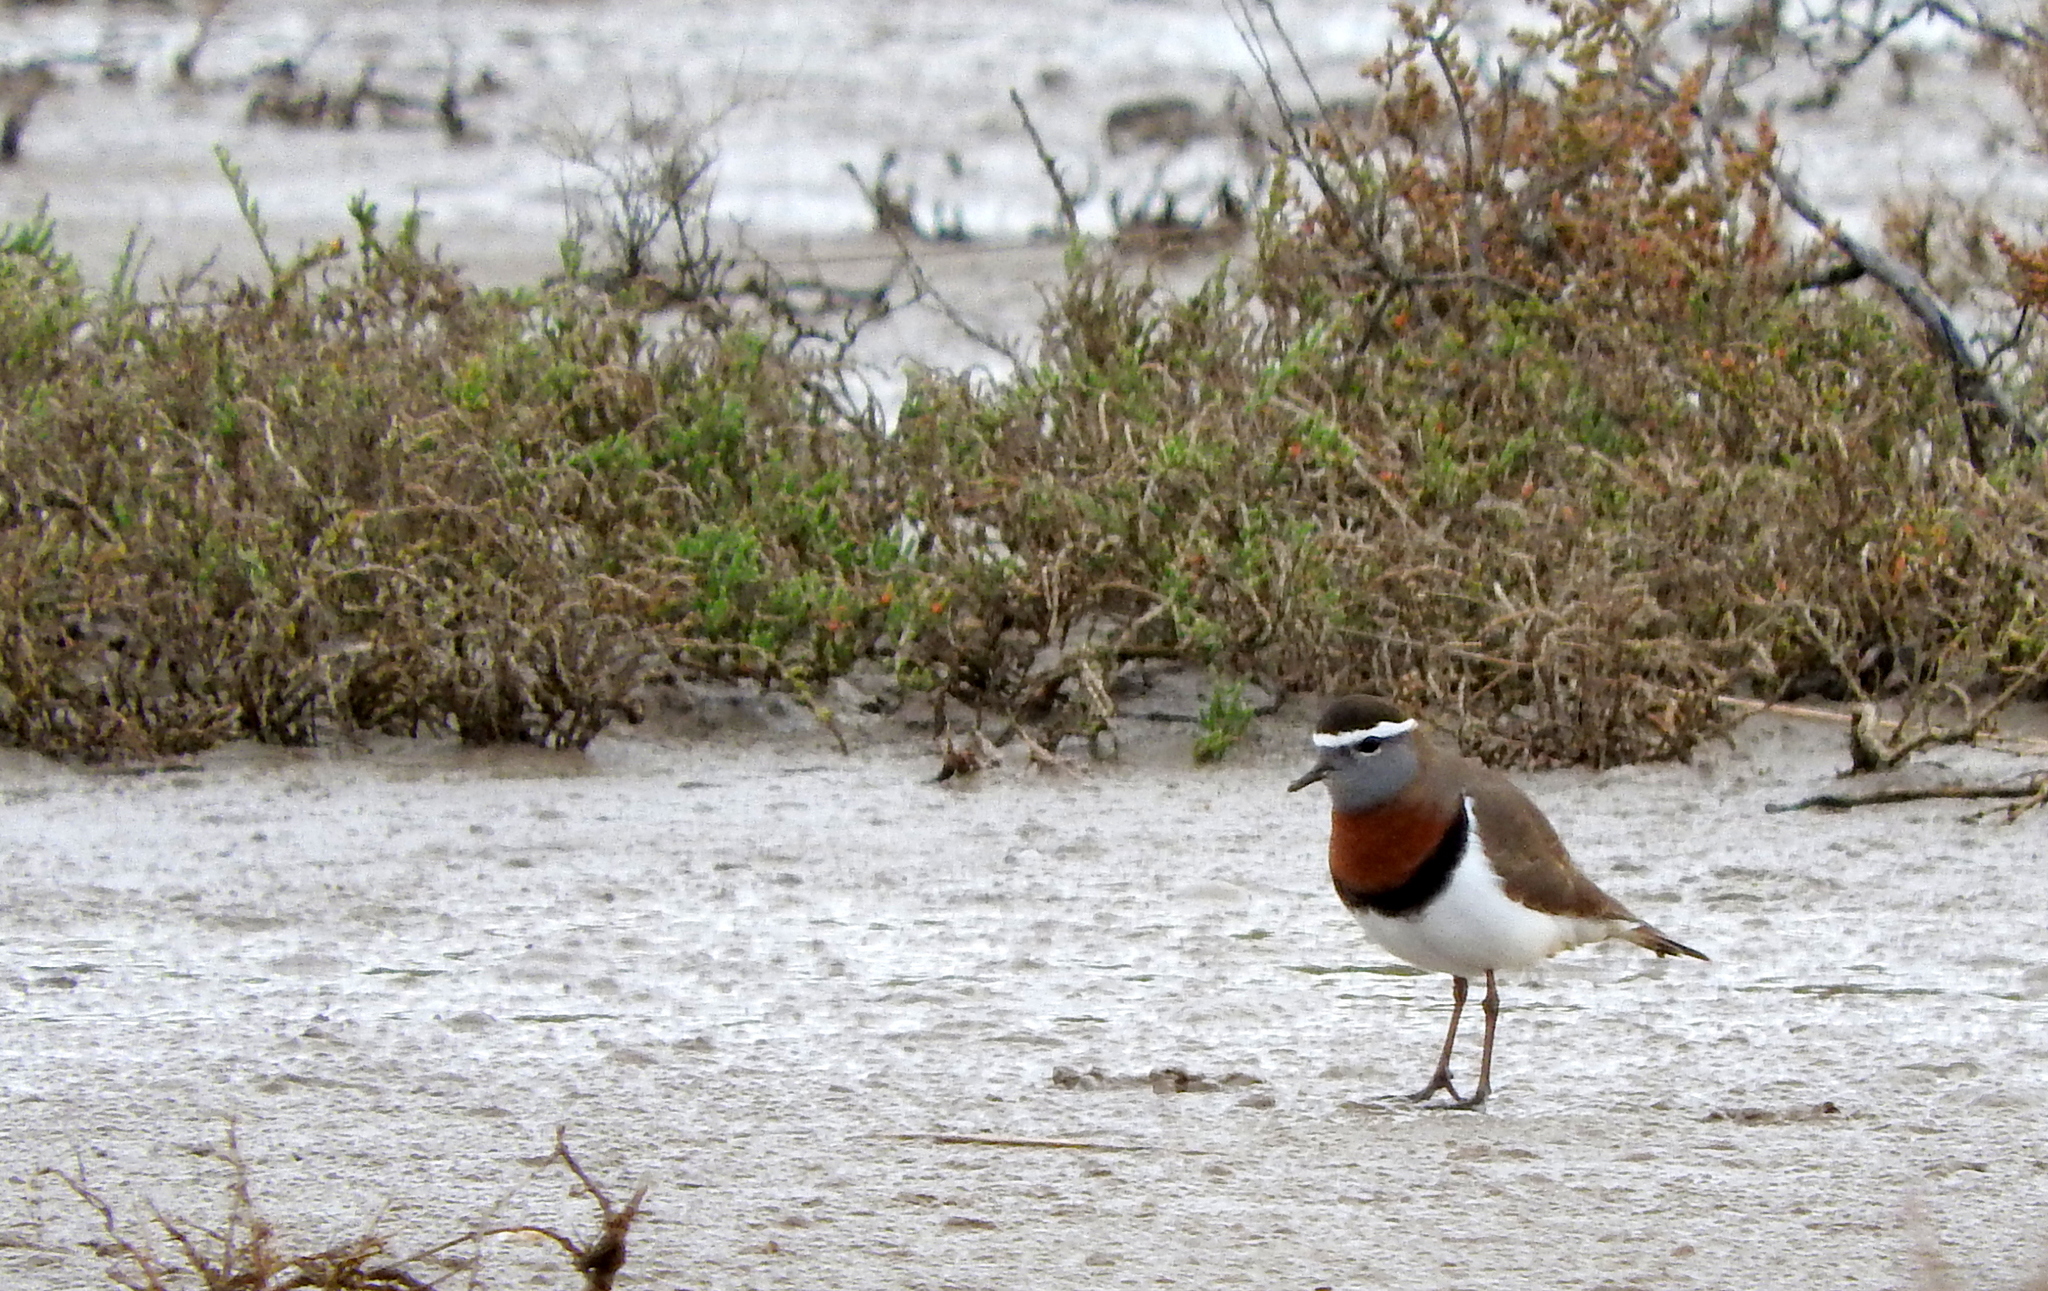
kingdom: Animalia
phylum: Chordata
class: Aves
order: Charadriiformes
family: Charadriidae
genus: Charadrius
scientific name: Charadrius modestus
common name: Rufous-chested plover
